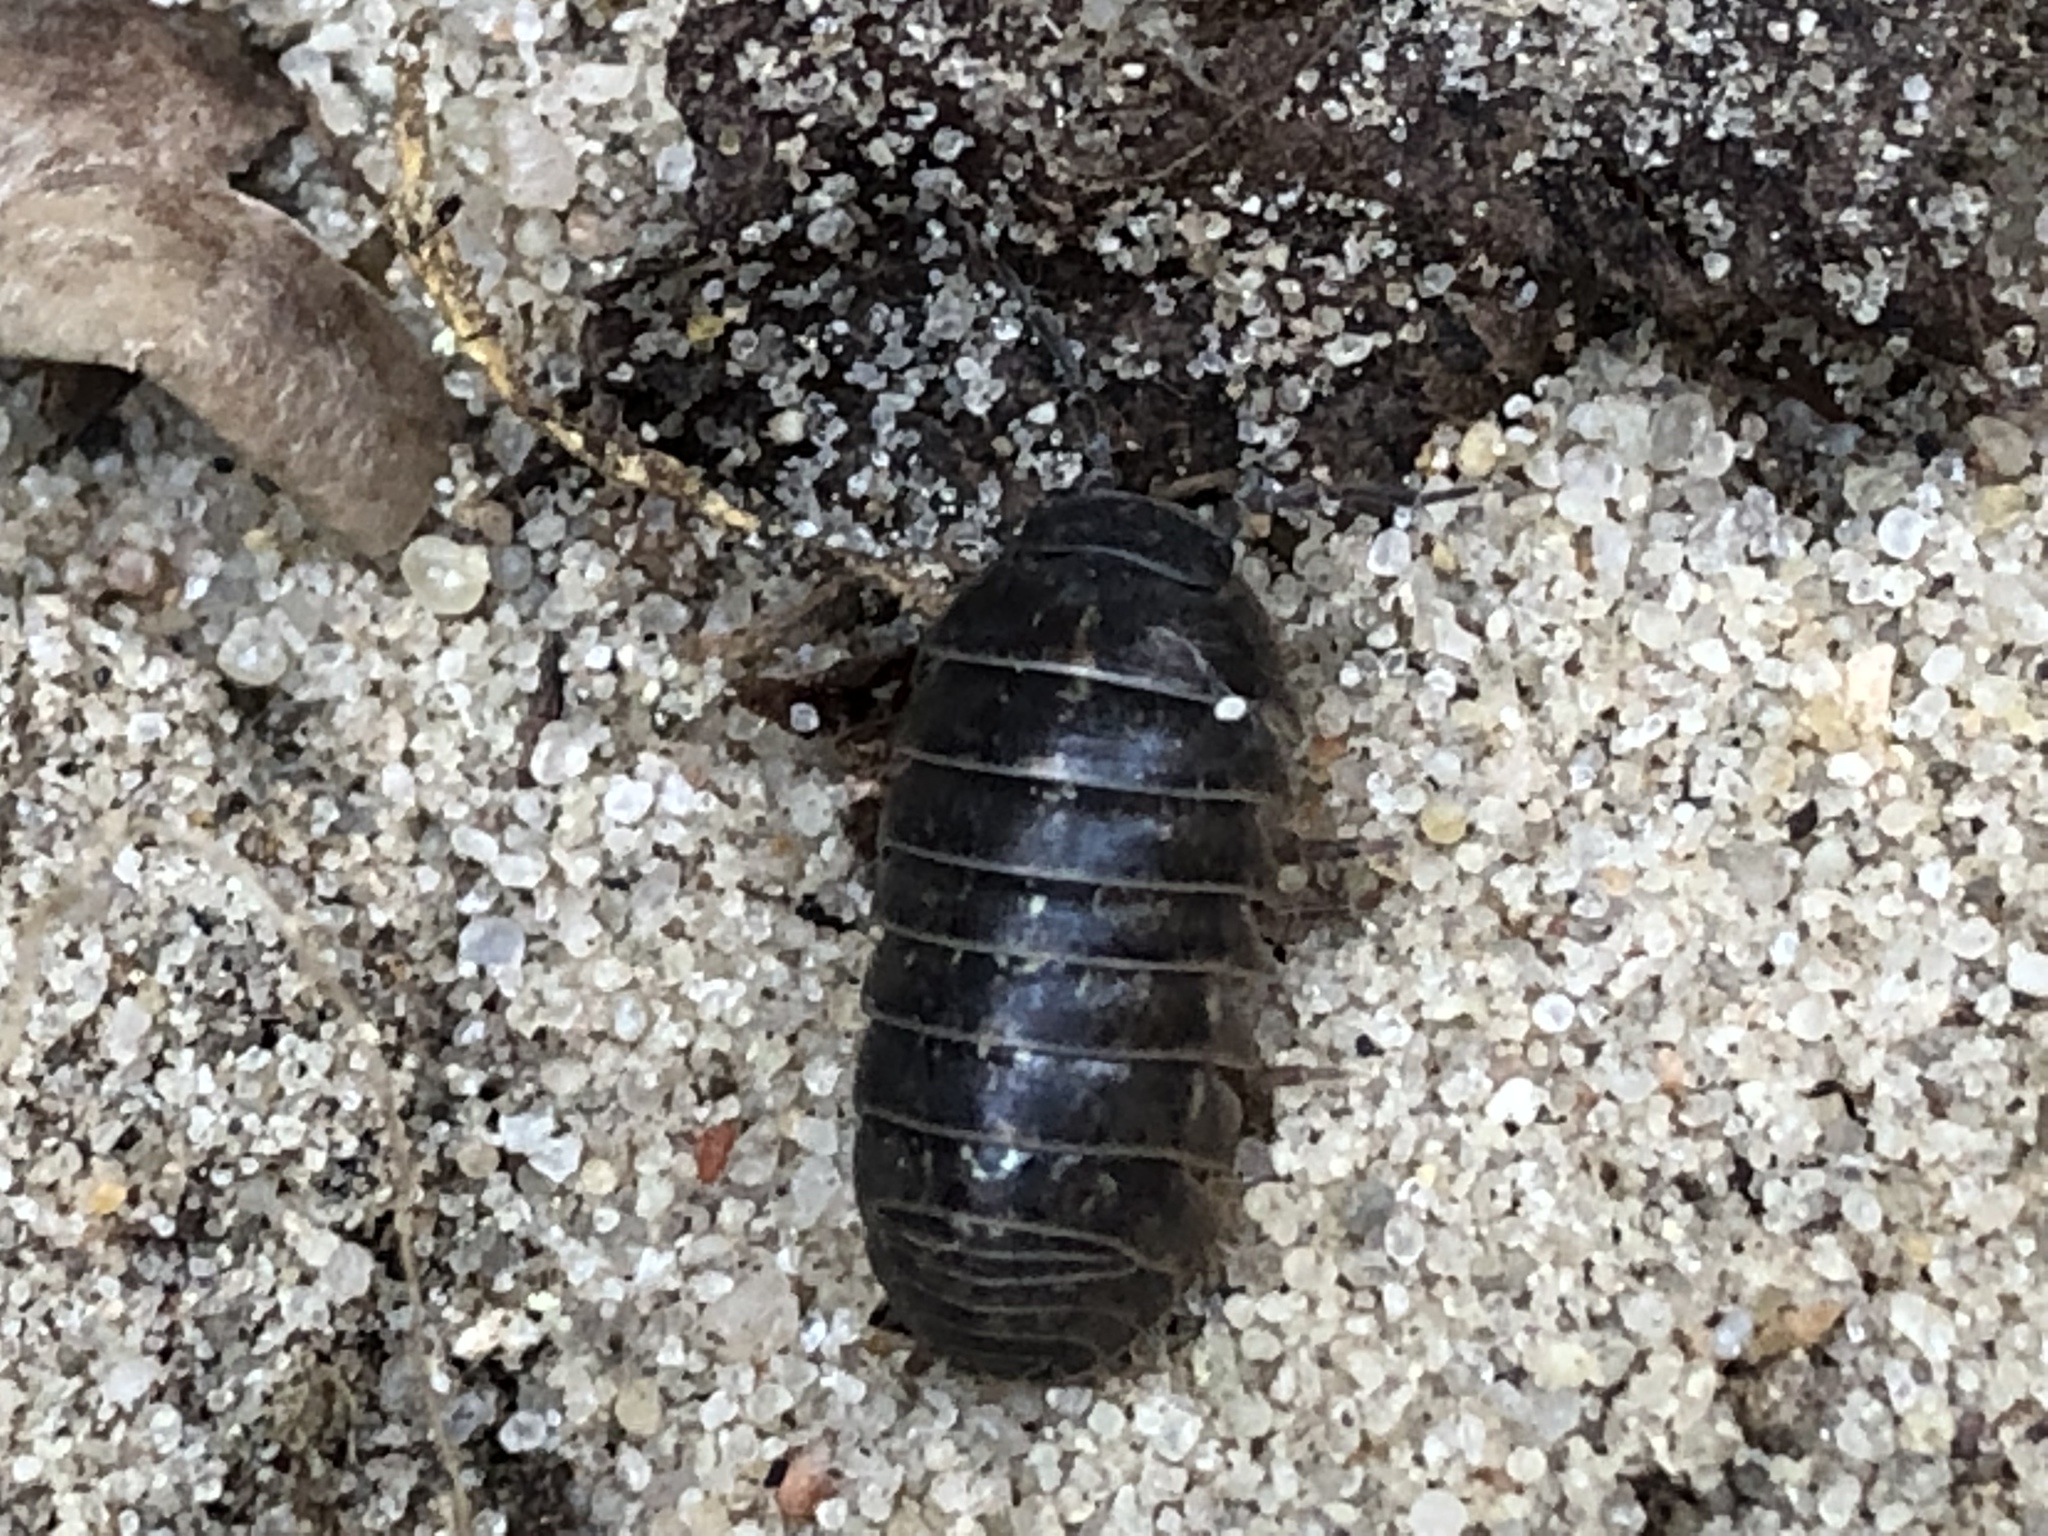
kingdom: Animalia
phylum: Arthropoda
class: Malacostraca
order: Isopoda
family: Armadillidiidae
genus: Armadillidium
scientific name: Armadillidium vulgare
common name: Common pill woodlouse
